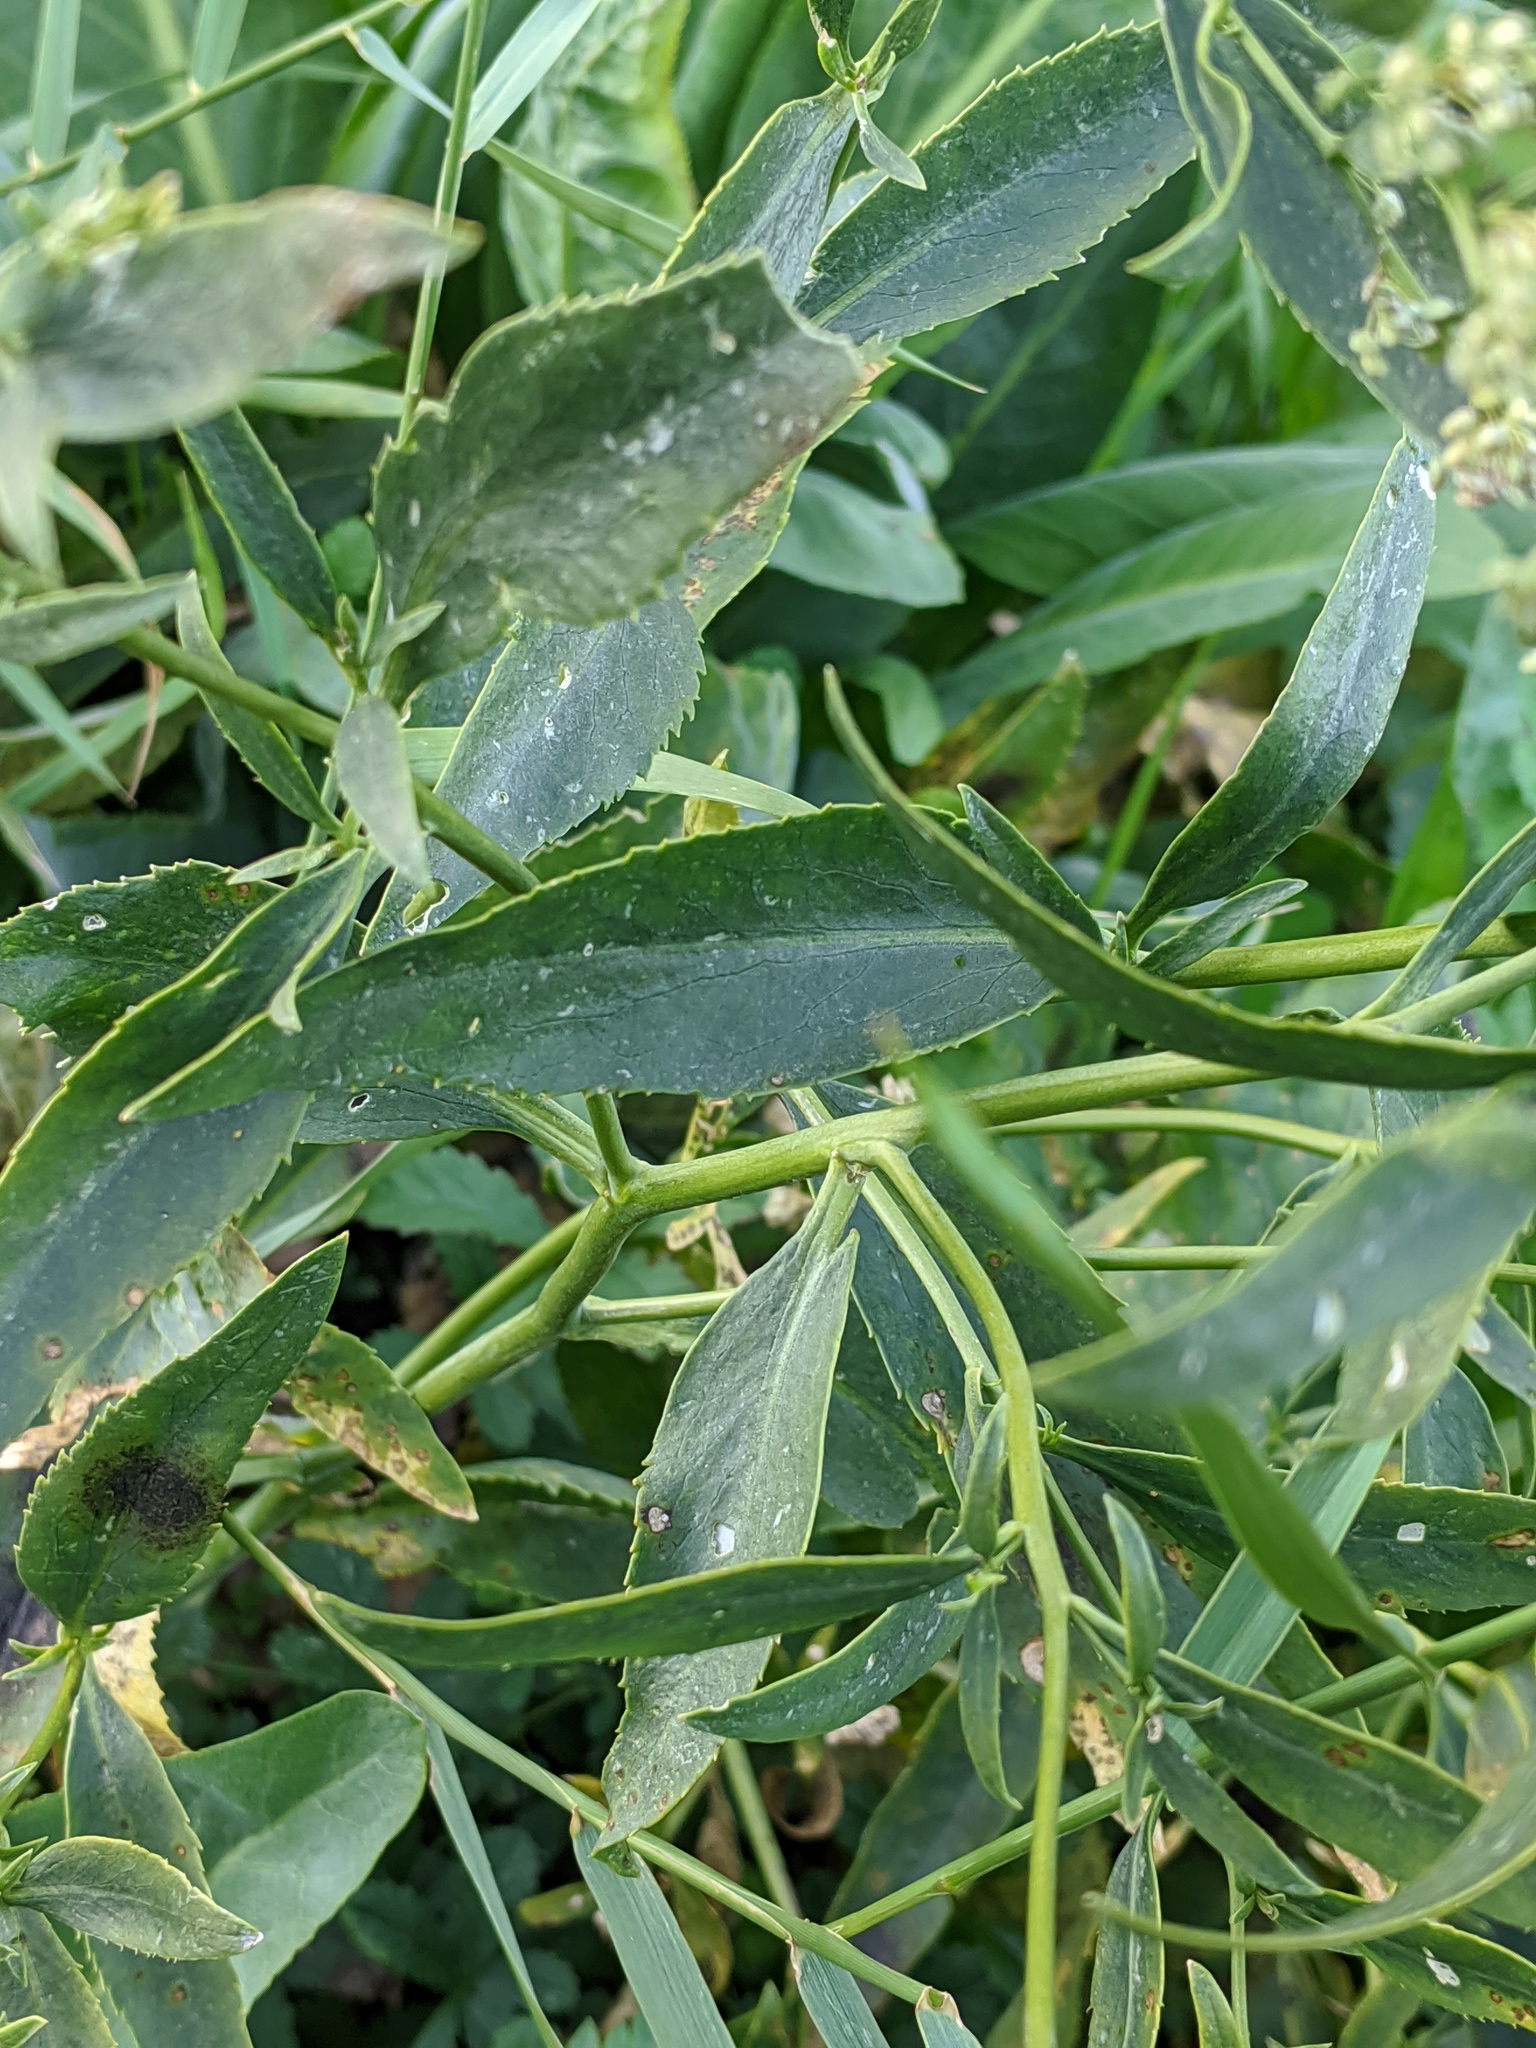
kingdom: Plantae
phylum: Tracheophyta
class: Magnoliopsida
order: Brassicales
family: Brassicaceae
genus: Lepidium
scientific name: Lepidium latifolium
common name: Dittander
